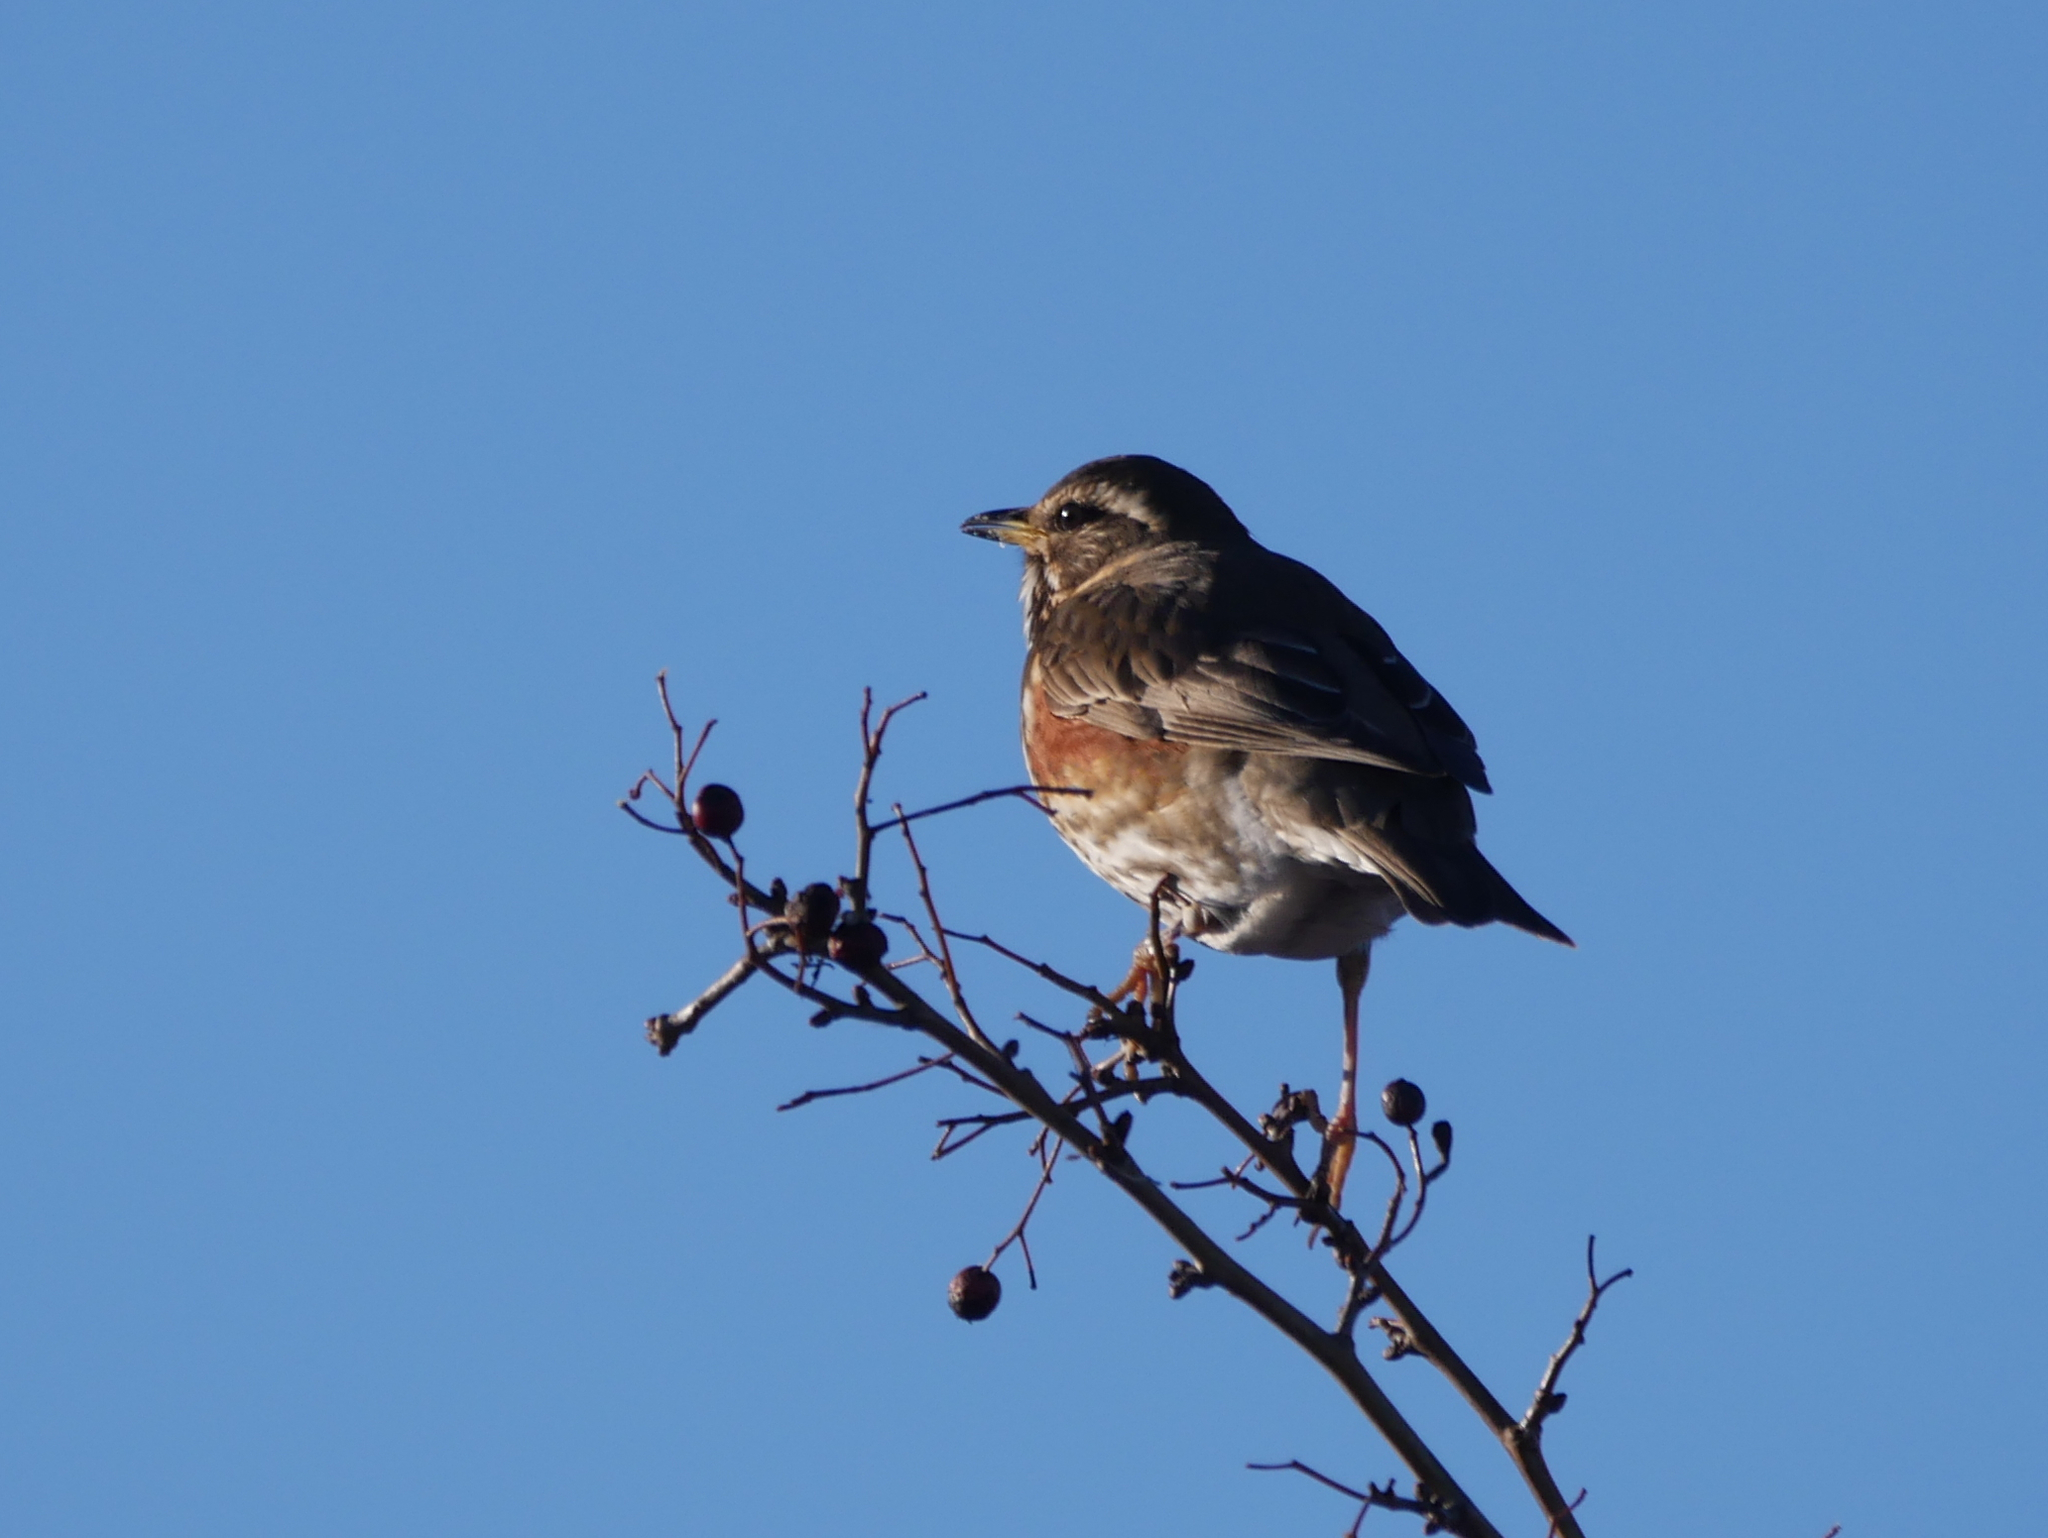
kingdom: Animalia
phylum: Chordata
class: Aves
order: Passeriformes
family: Turdidae
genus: Turdus
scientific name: Turdus iliacus
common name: Redwing
